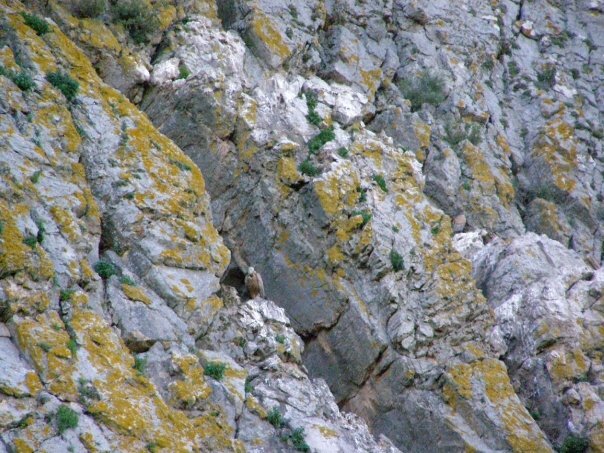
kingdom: Animalia
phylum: Chordata
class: Aves
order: Accipitriformes
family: Accipitridae
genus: Gyps
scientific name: Gyps fulvus
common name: Griffon vulture
